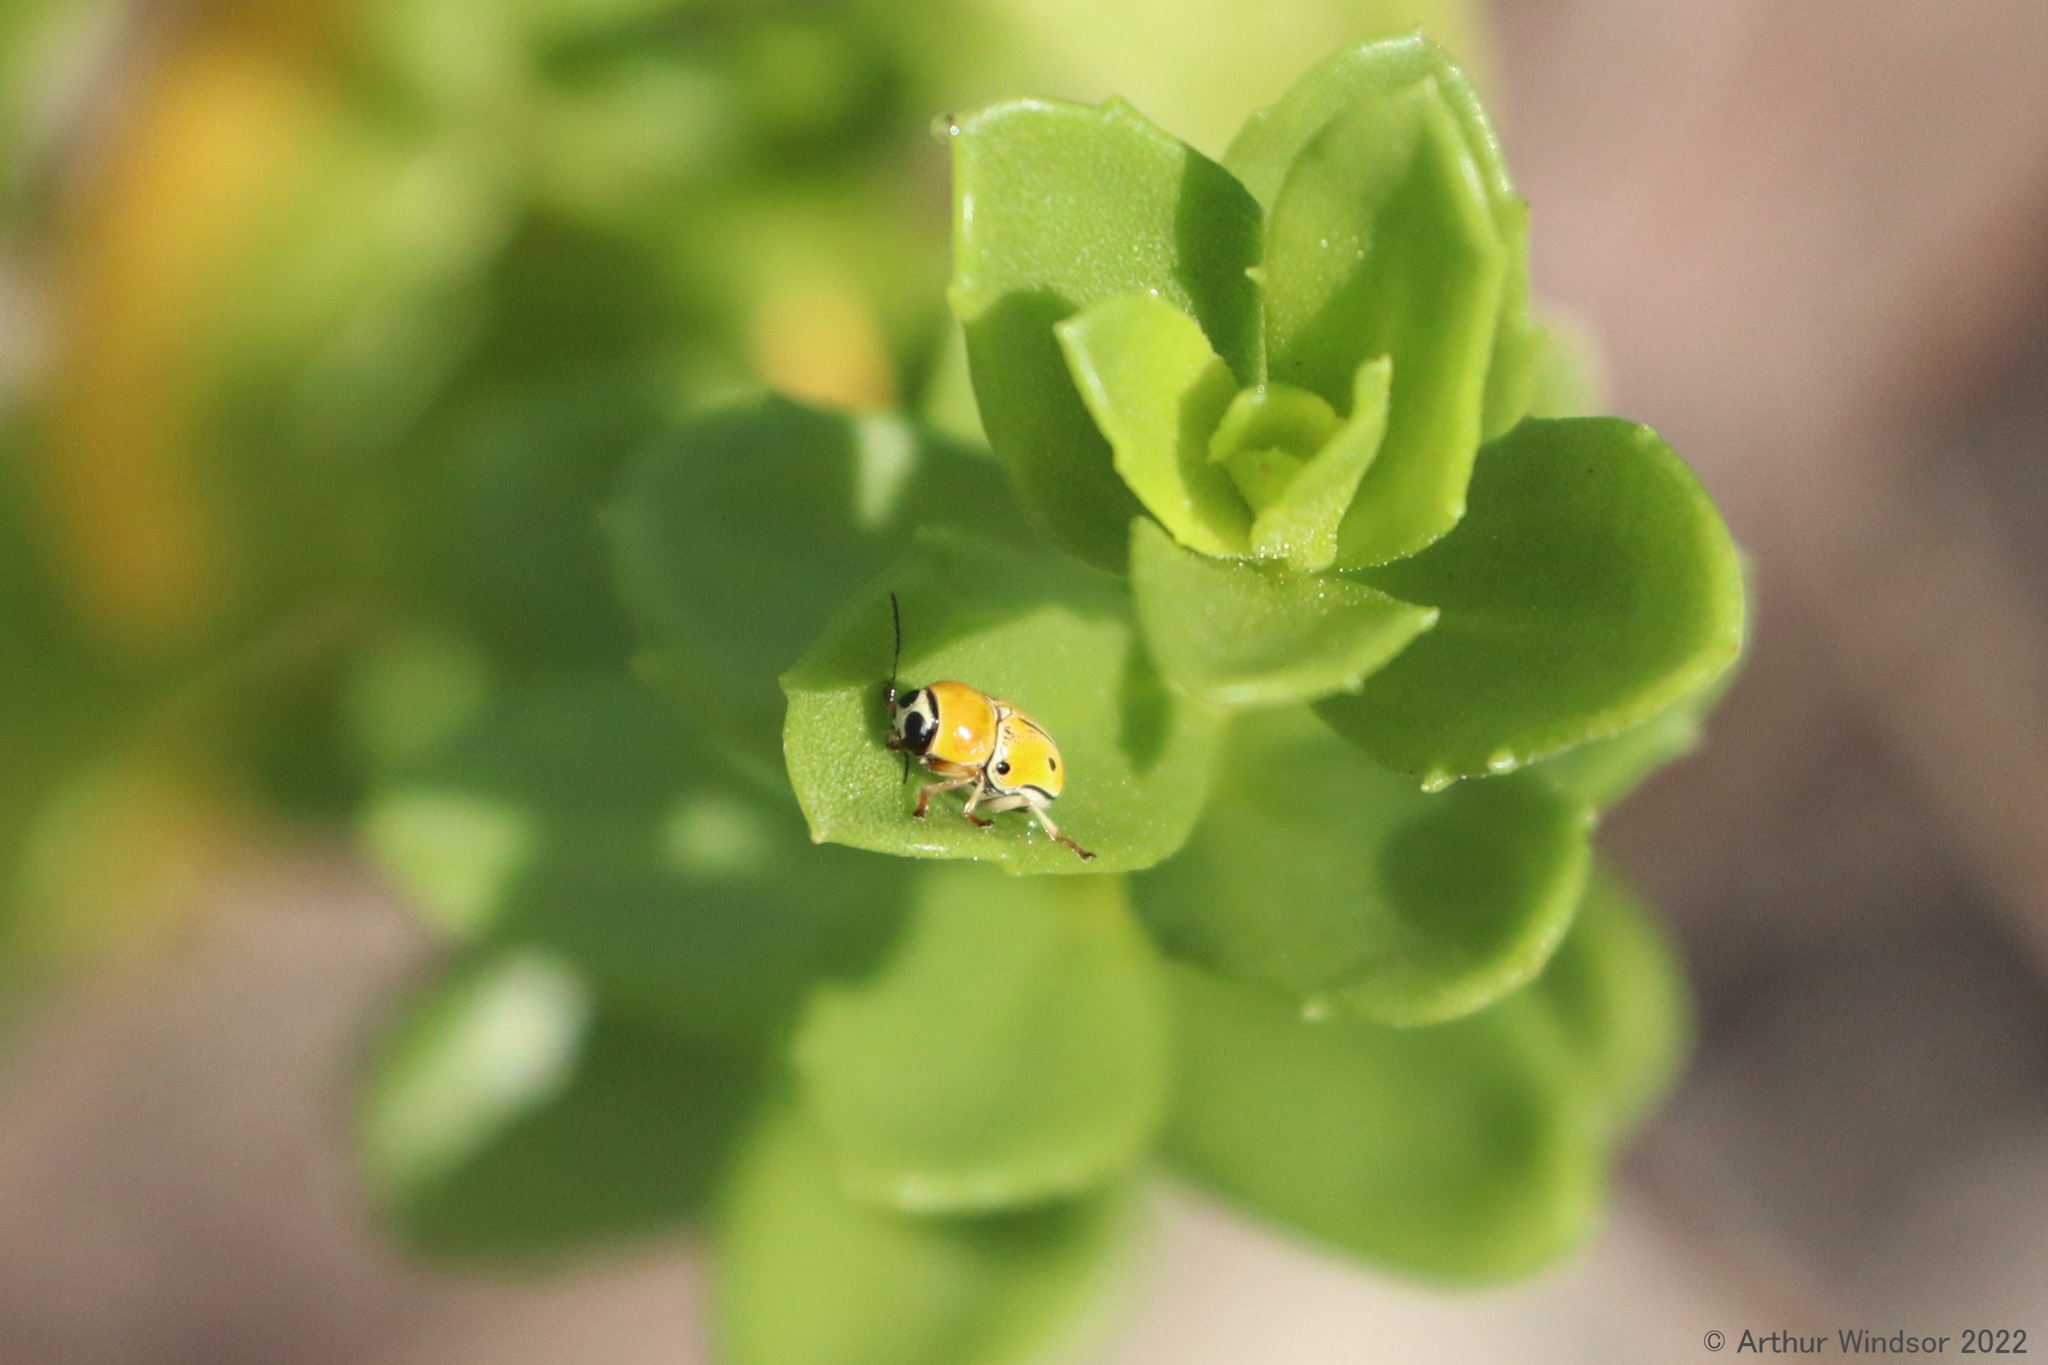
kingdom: Animalia
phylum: Arthropoda
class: Insecta
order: Coleoptera
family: Chrysomelidae
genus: Griburius
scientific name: Griburius larvatus
